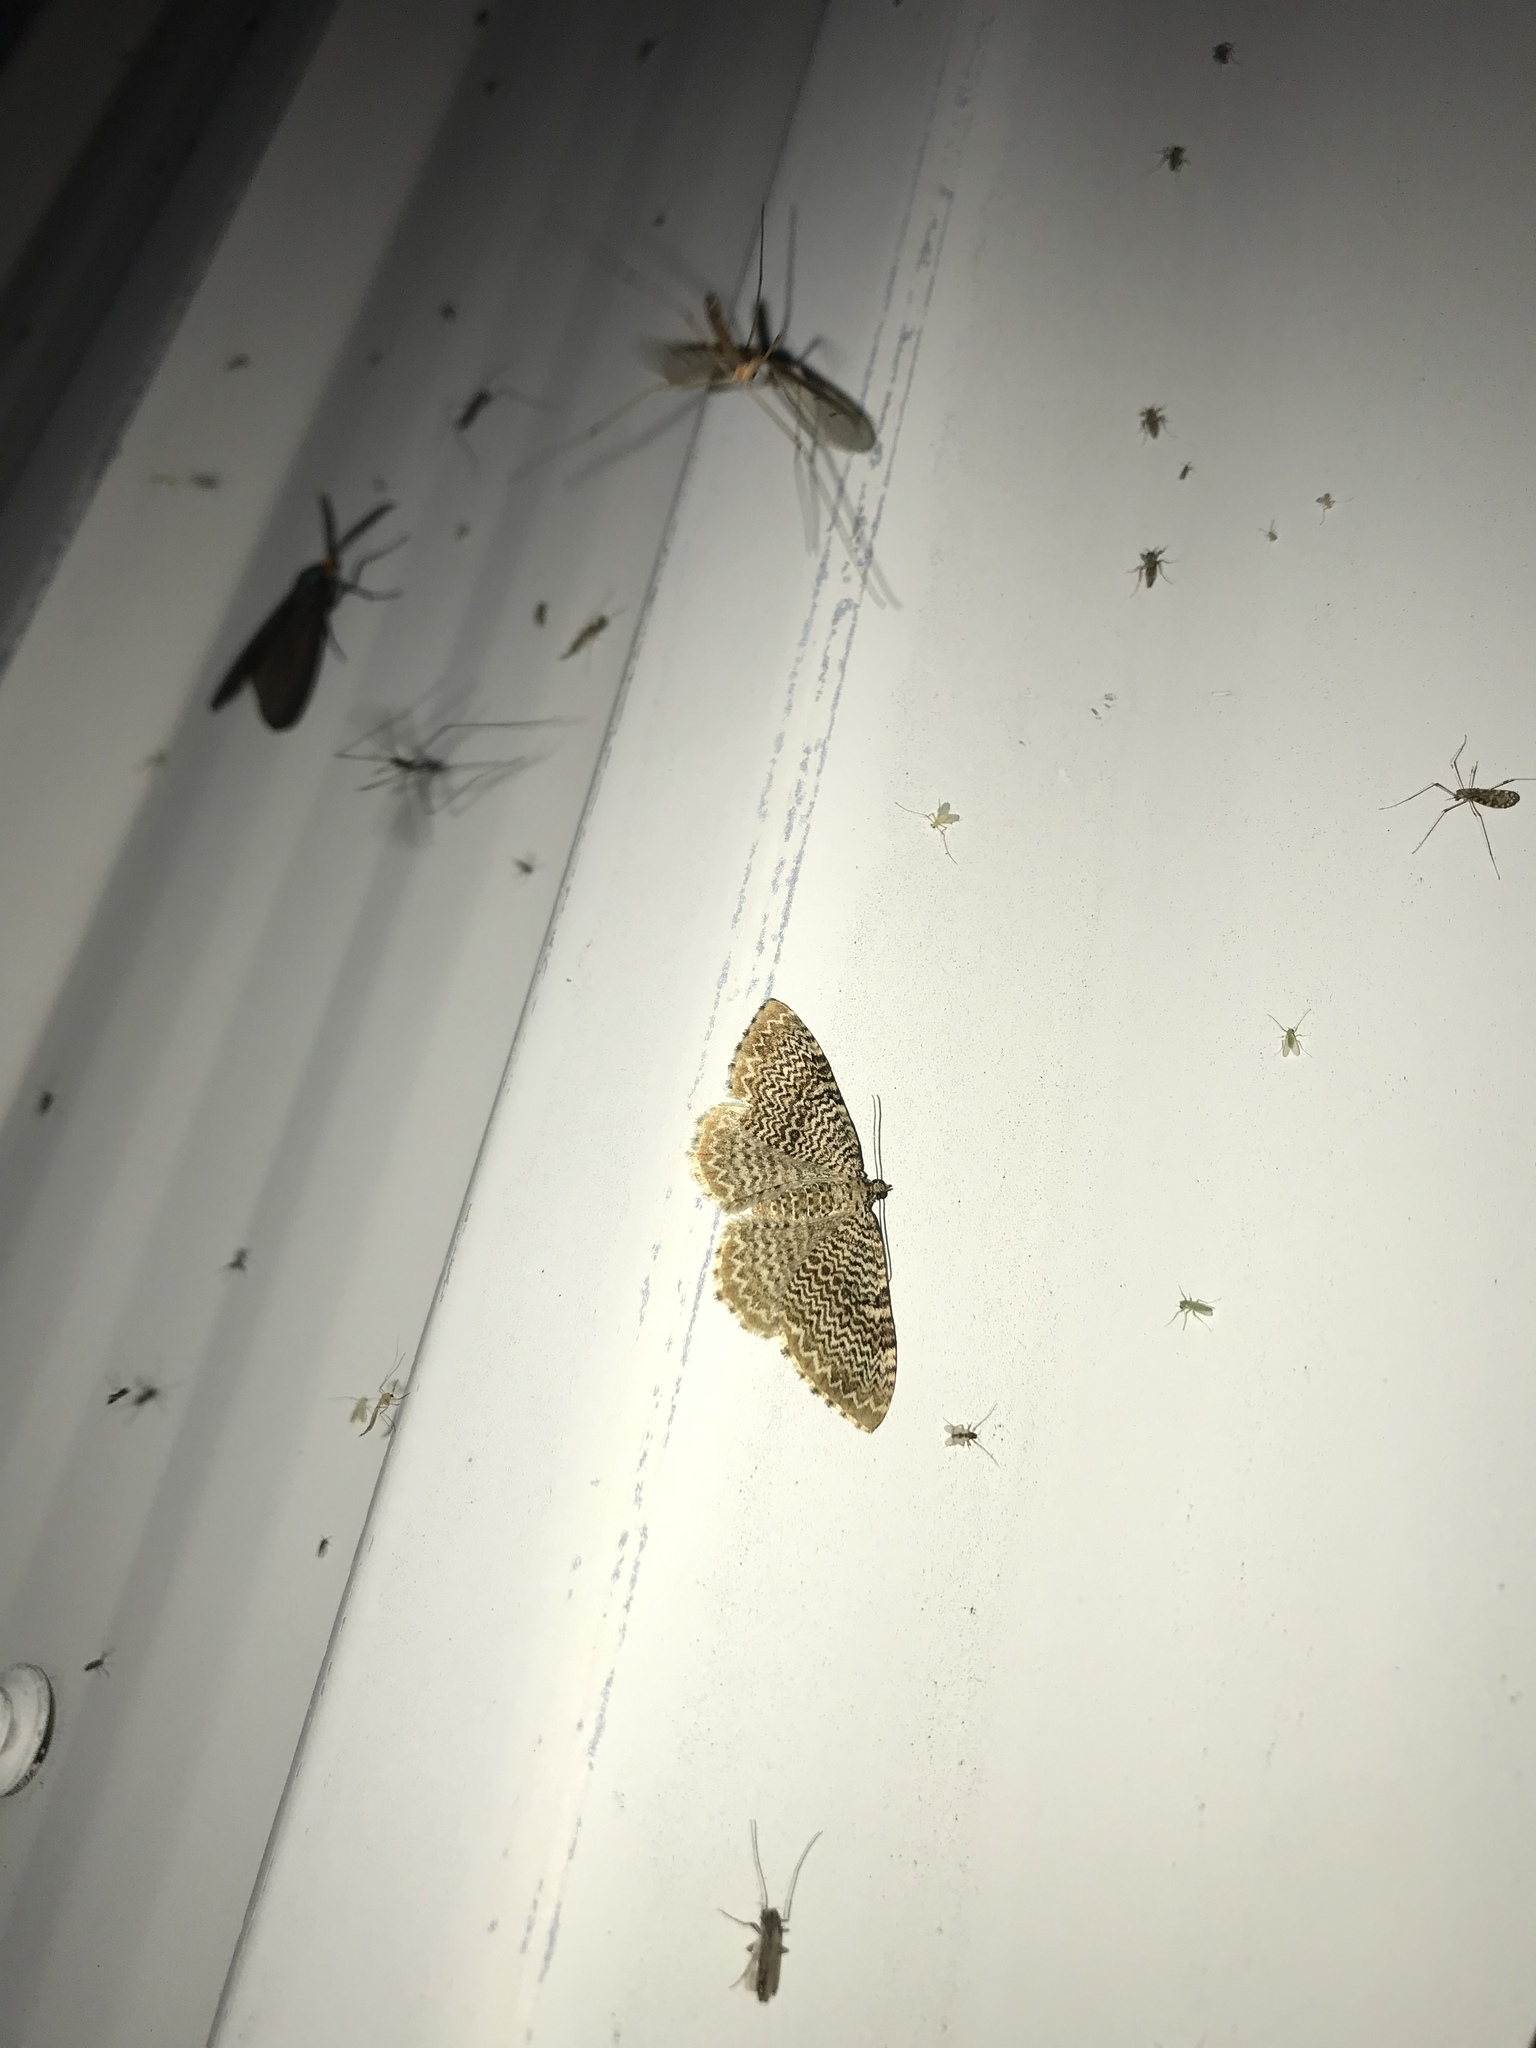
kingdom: Animalia
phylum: Arthropoda
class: Insecta
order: Lepidoptera
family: Geometridae
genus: Rheumaptera
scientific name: Rheumaptera prunivorata
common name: Cherry scallop shell moth
